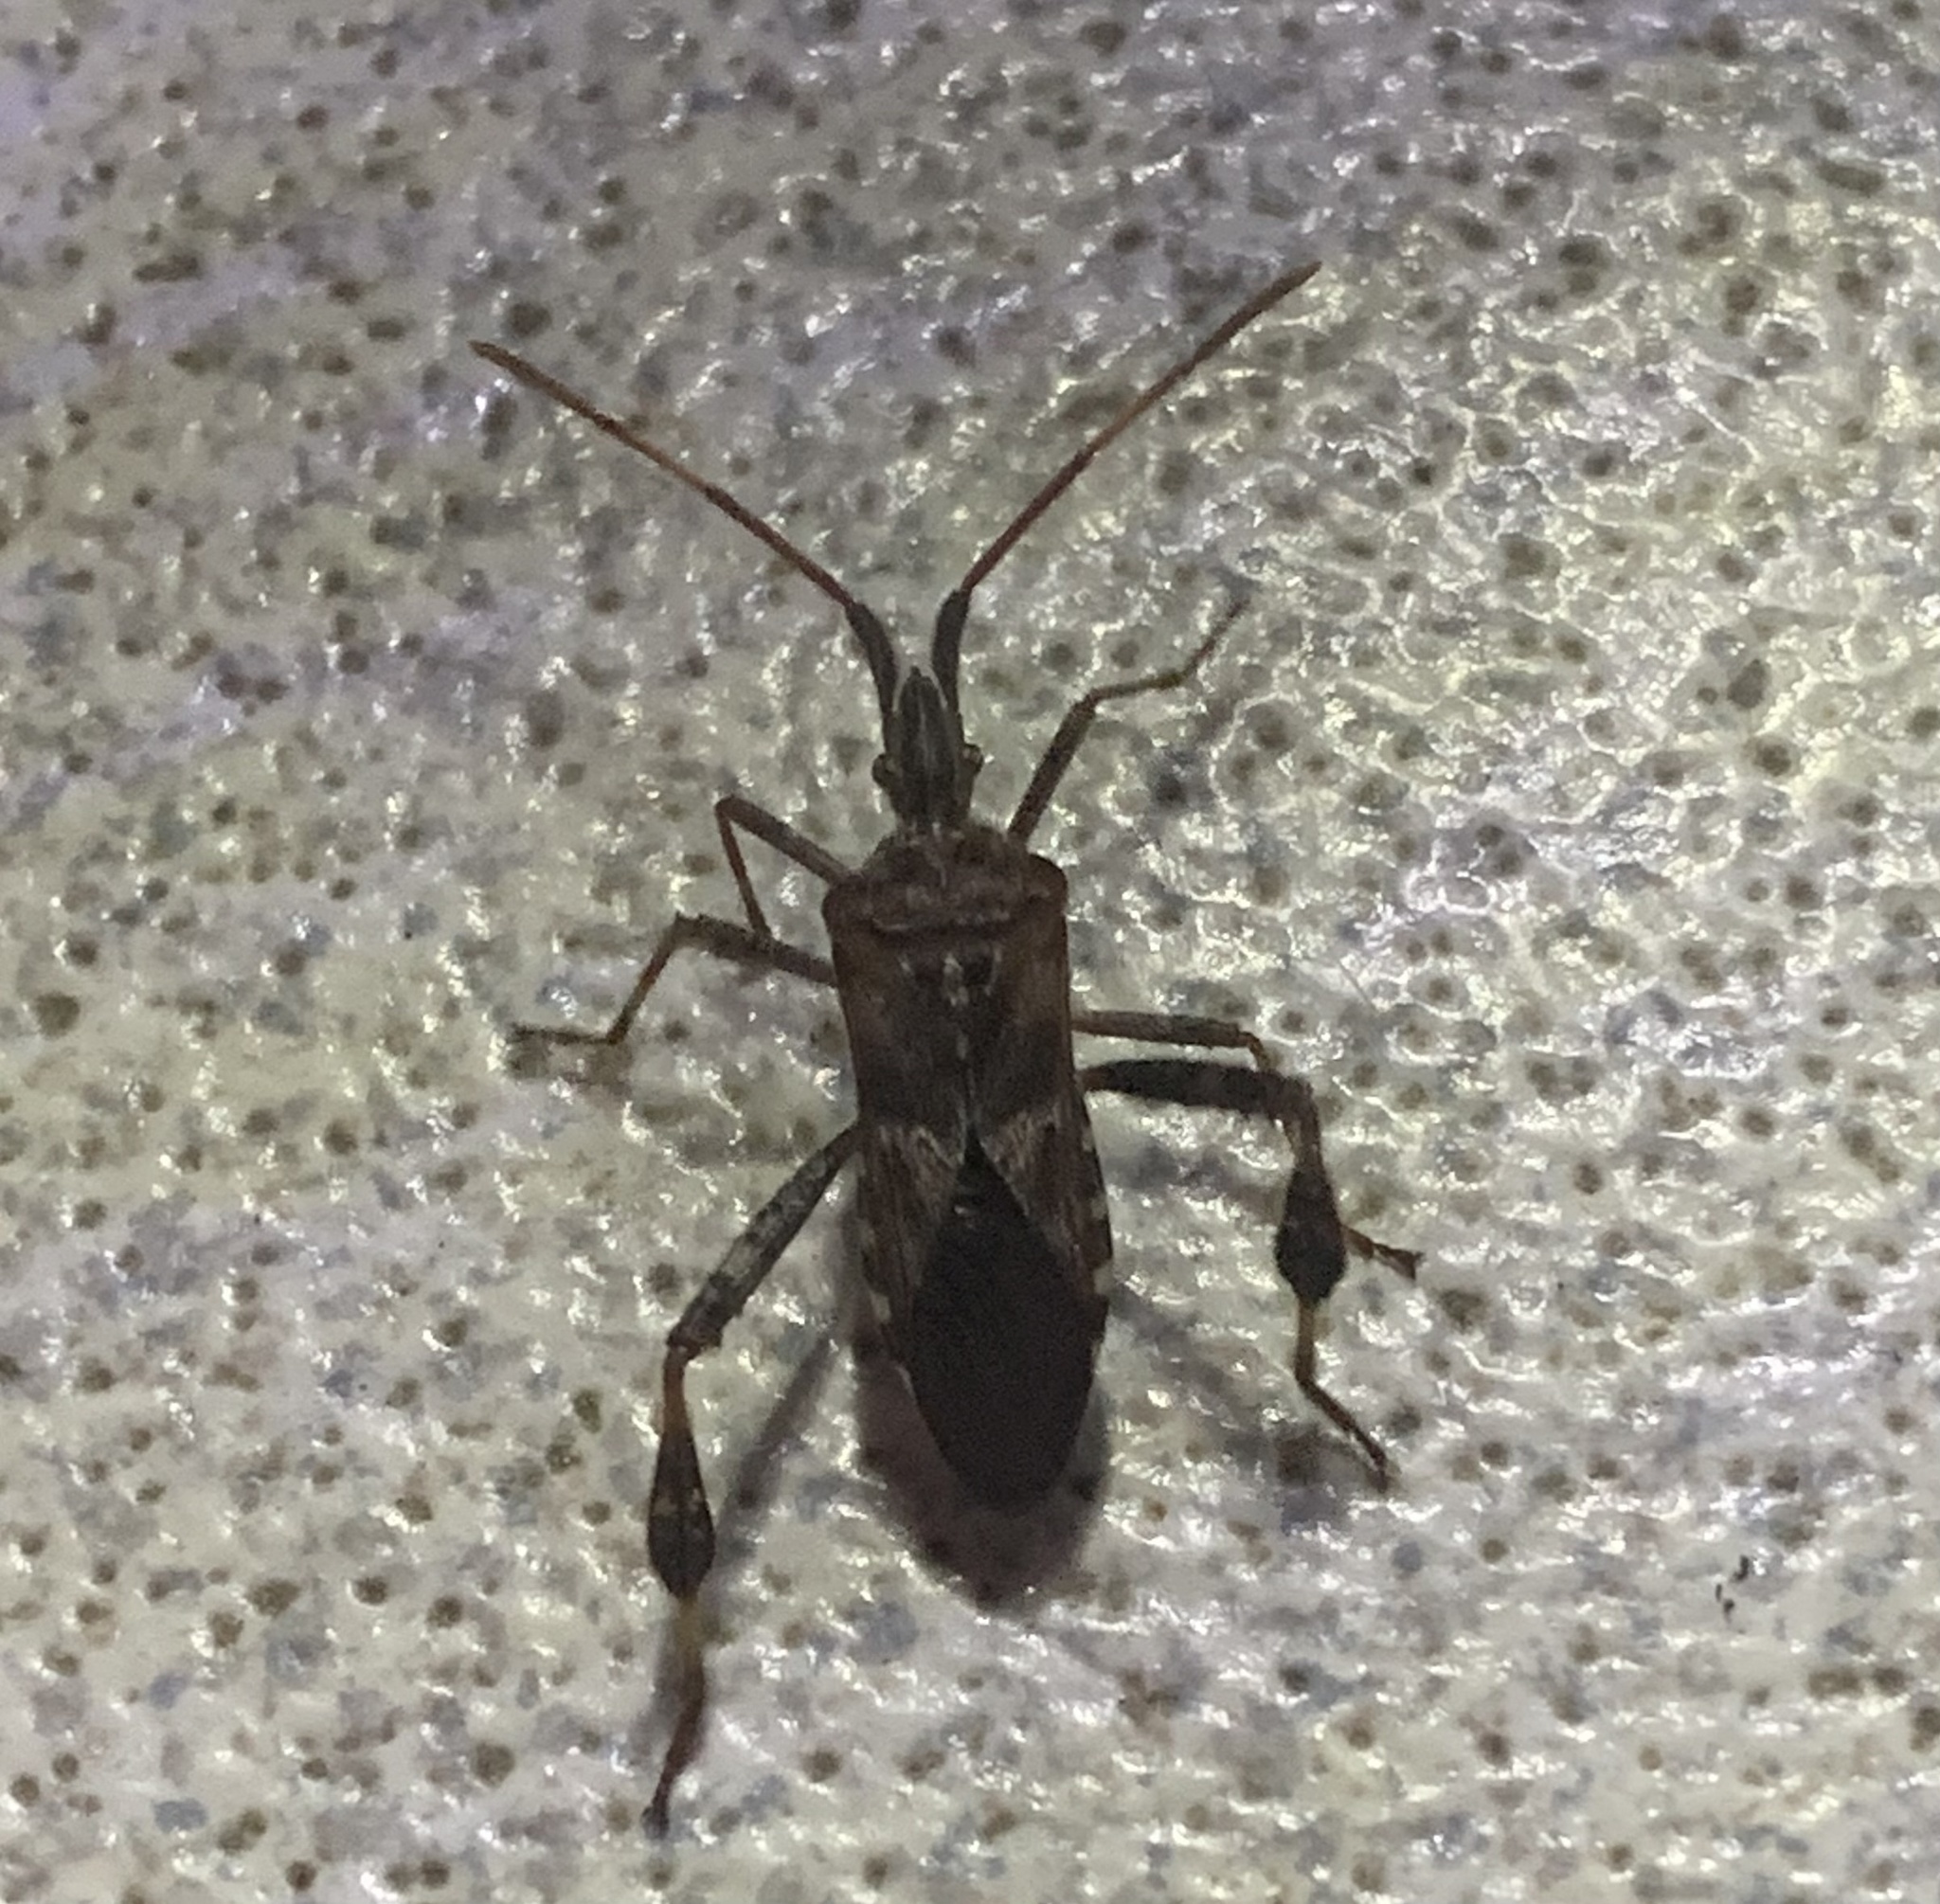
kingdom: Animalia
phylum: Arthropoda
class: Insecta
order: Hemiptera
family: Coreidae
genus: Leptoglossus
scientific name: Leptoglossus occidentalis
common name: Western conifer-seed bug
